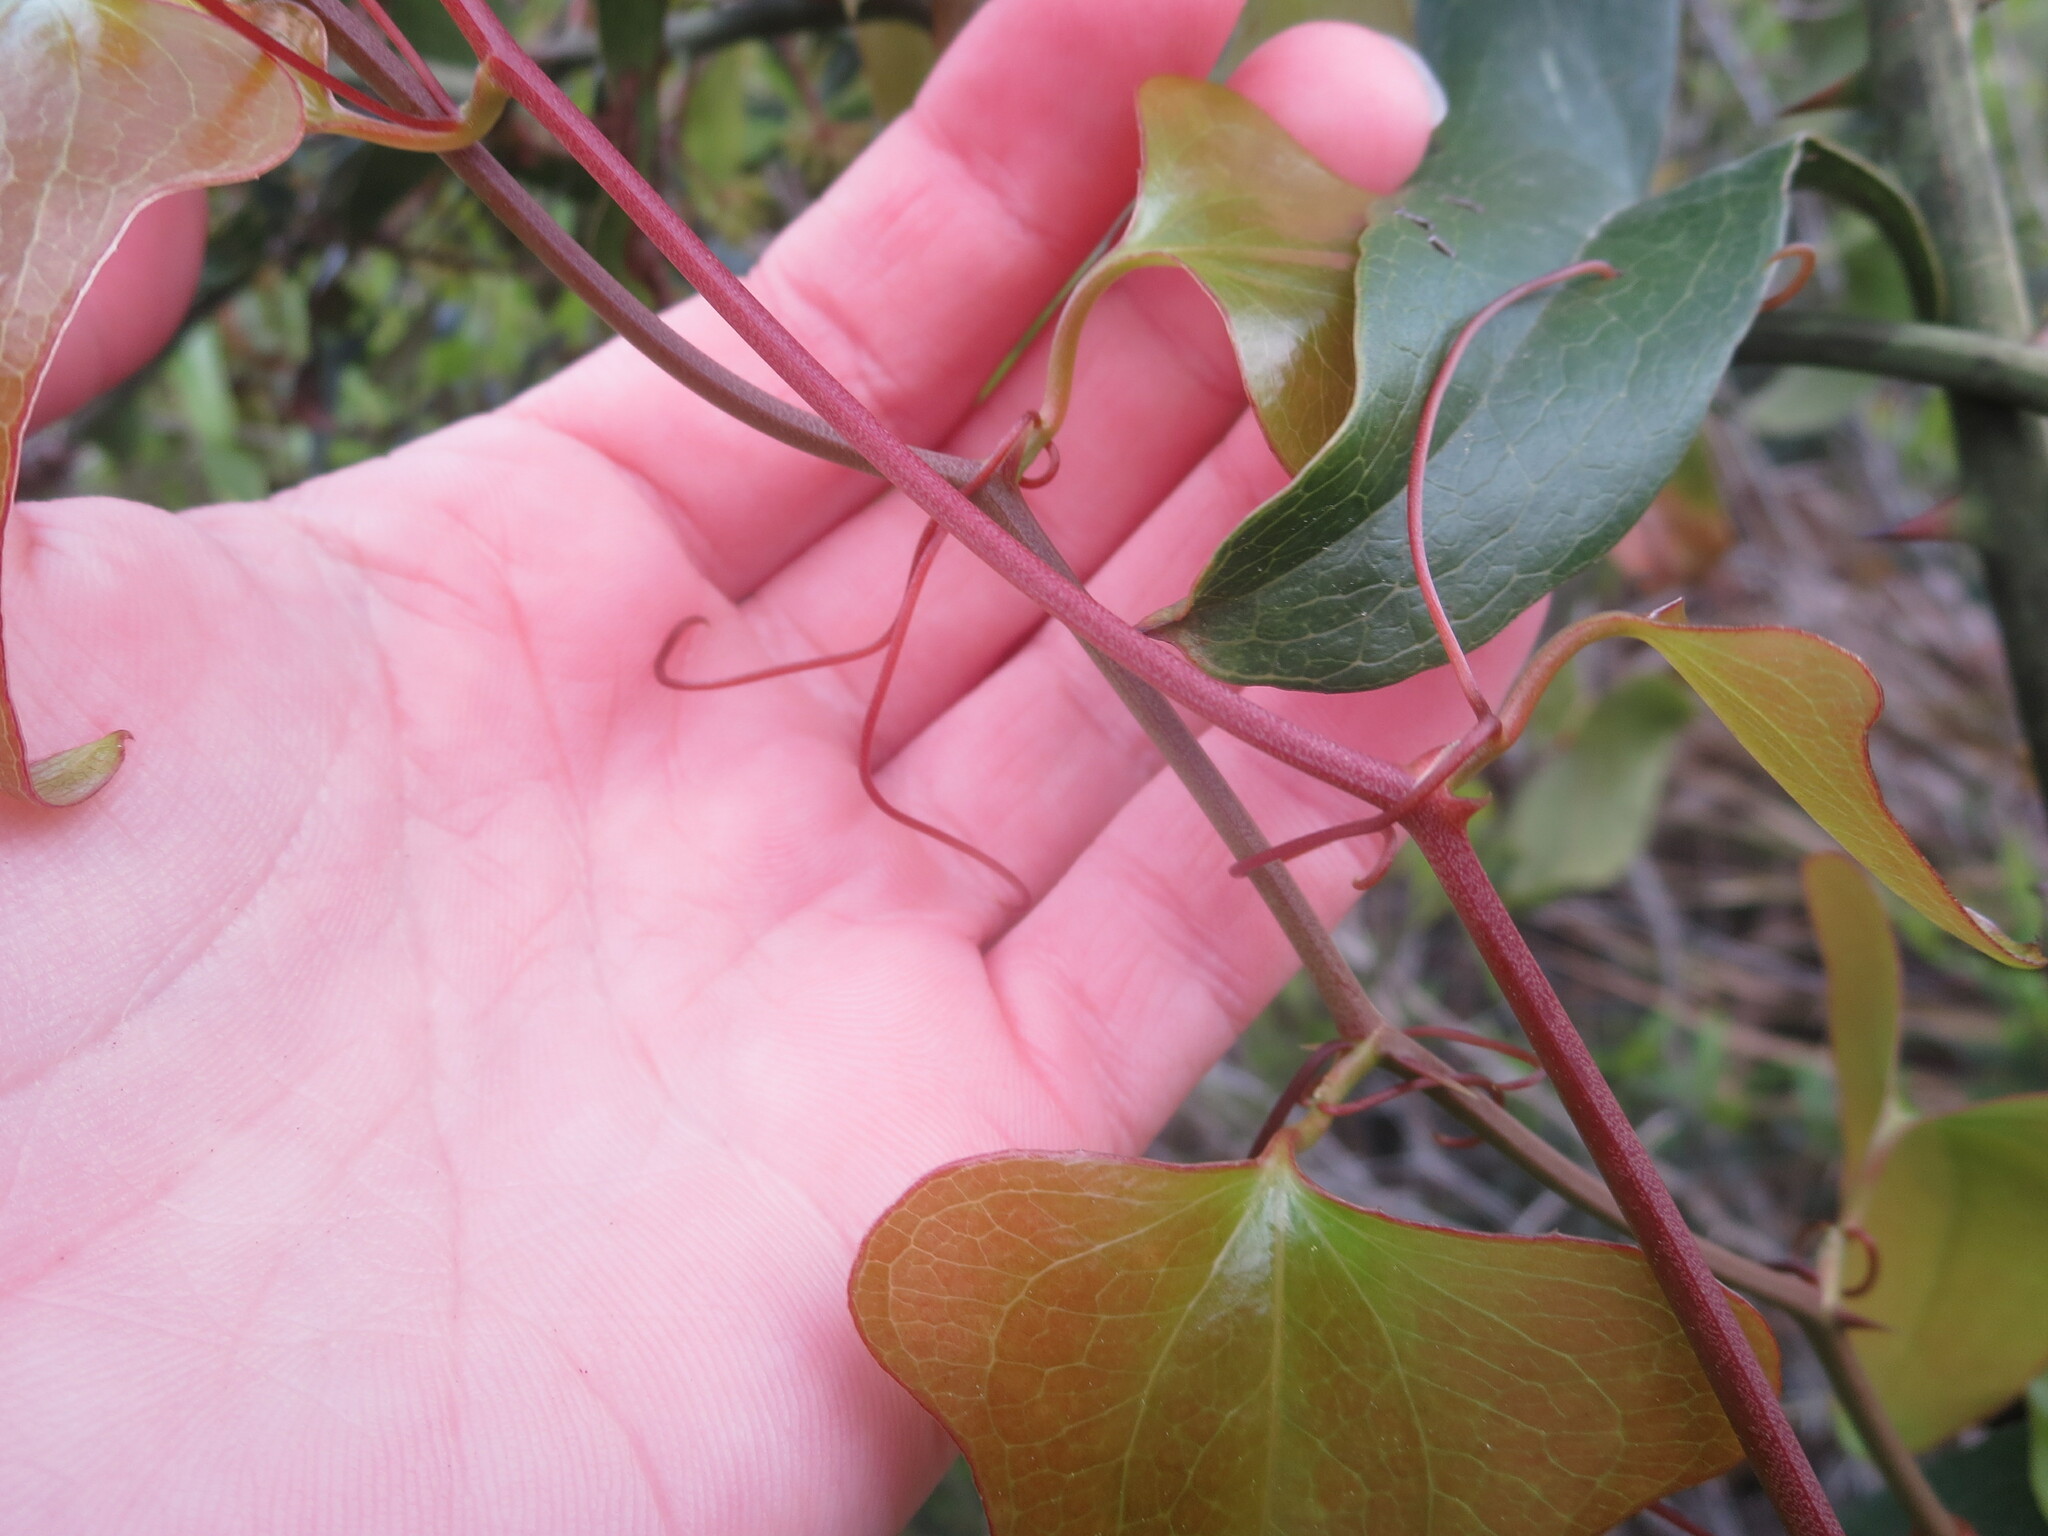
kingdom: Plantae
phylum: Tracheophyta
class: Liliopsida
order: Liliales
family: Smilacaceae
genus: Smilax
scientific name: Smilax bona-nox
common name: Catbrier
